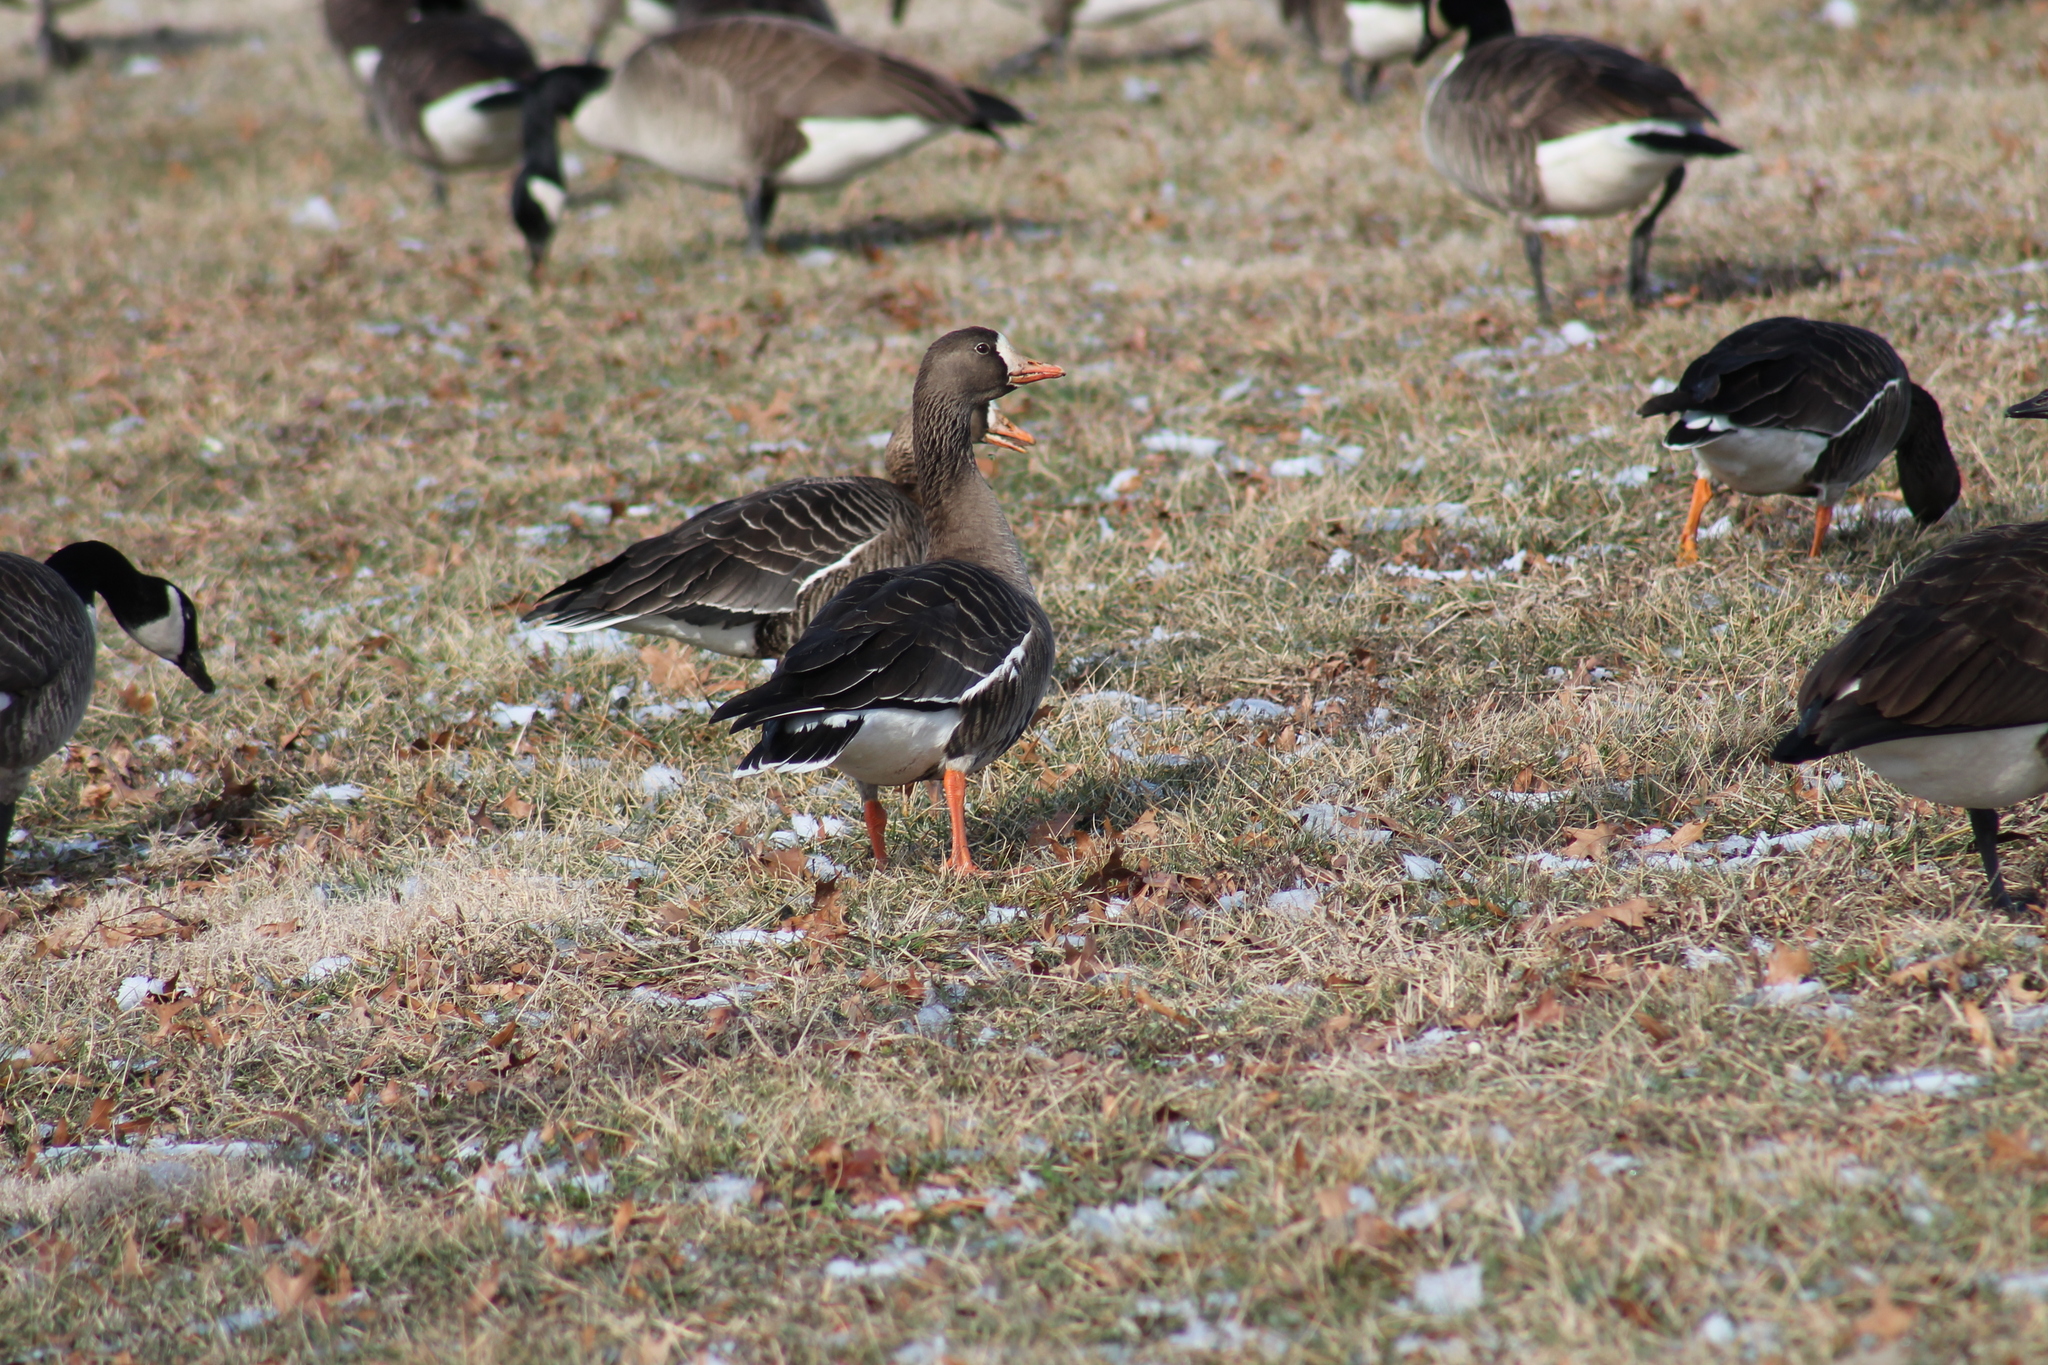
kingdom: Animalia
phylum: Chordata
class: Aves
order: Anseriformes
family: Anatidae
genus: Anser
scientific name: Anser albifrons
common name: Greater white-fronted goose
